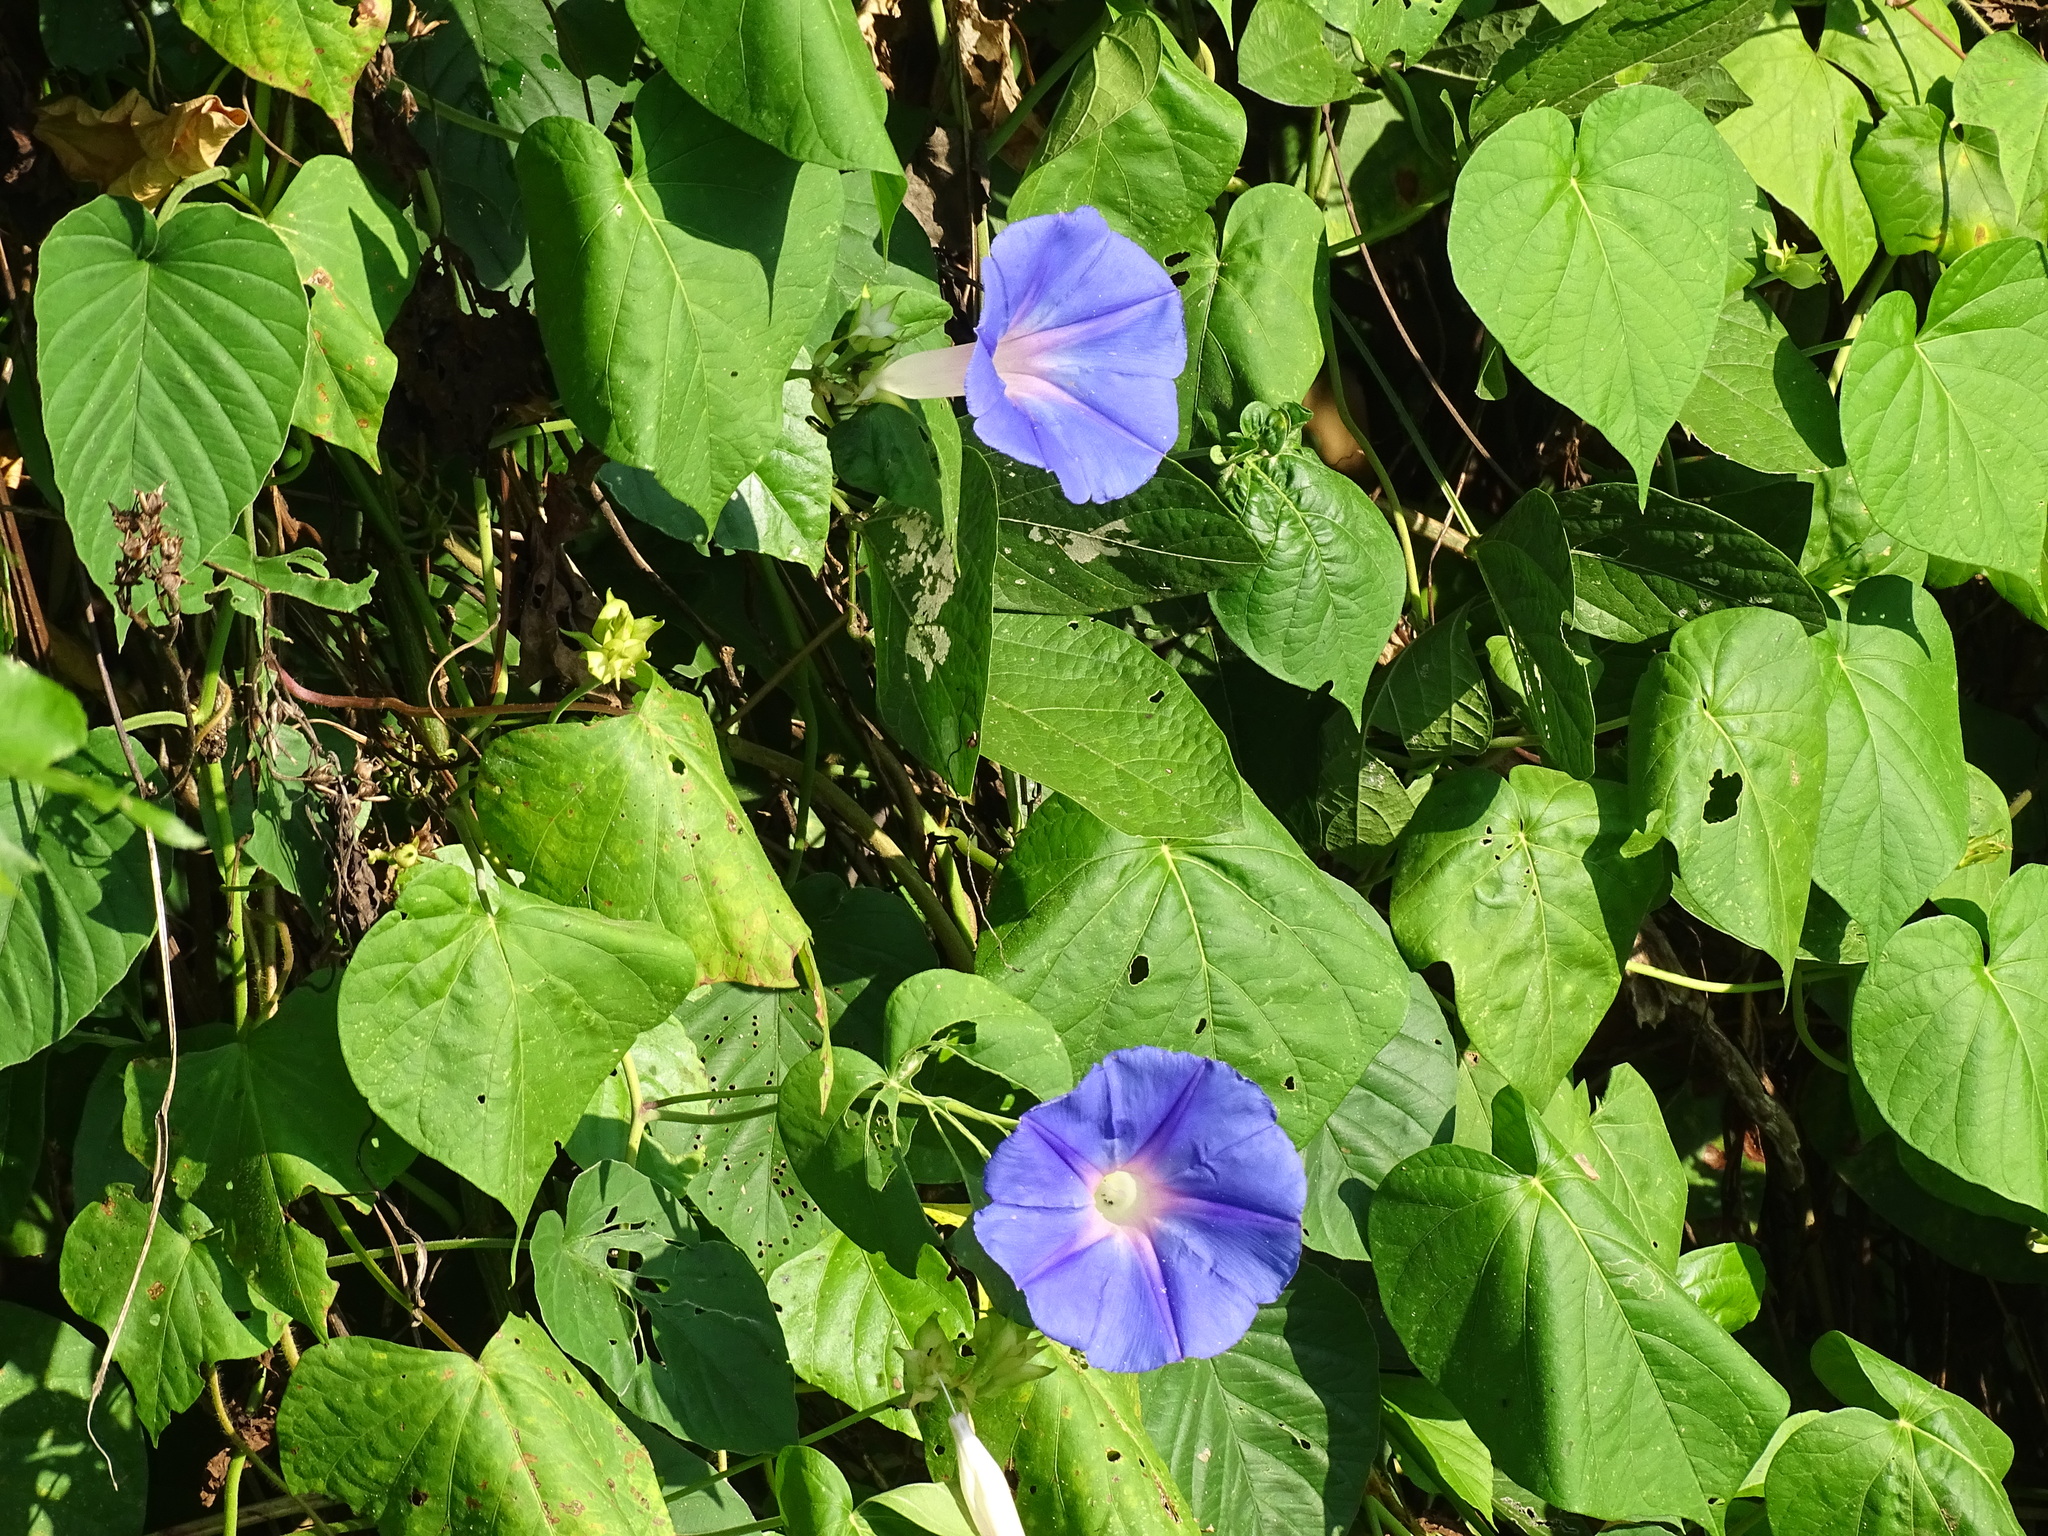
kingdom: Plantae
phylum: Tracheophyta
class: Magnoliopsida
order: Solanales
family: Convolvulaceae
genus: Ipomoea
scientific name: Ipomoea indica
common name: Blue dawnflower
